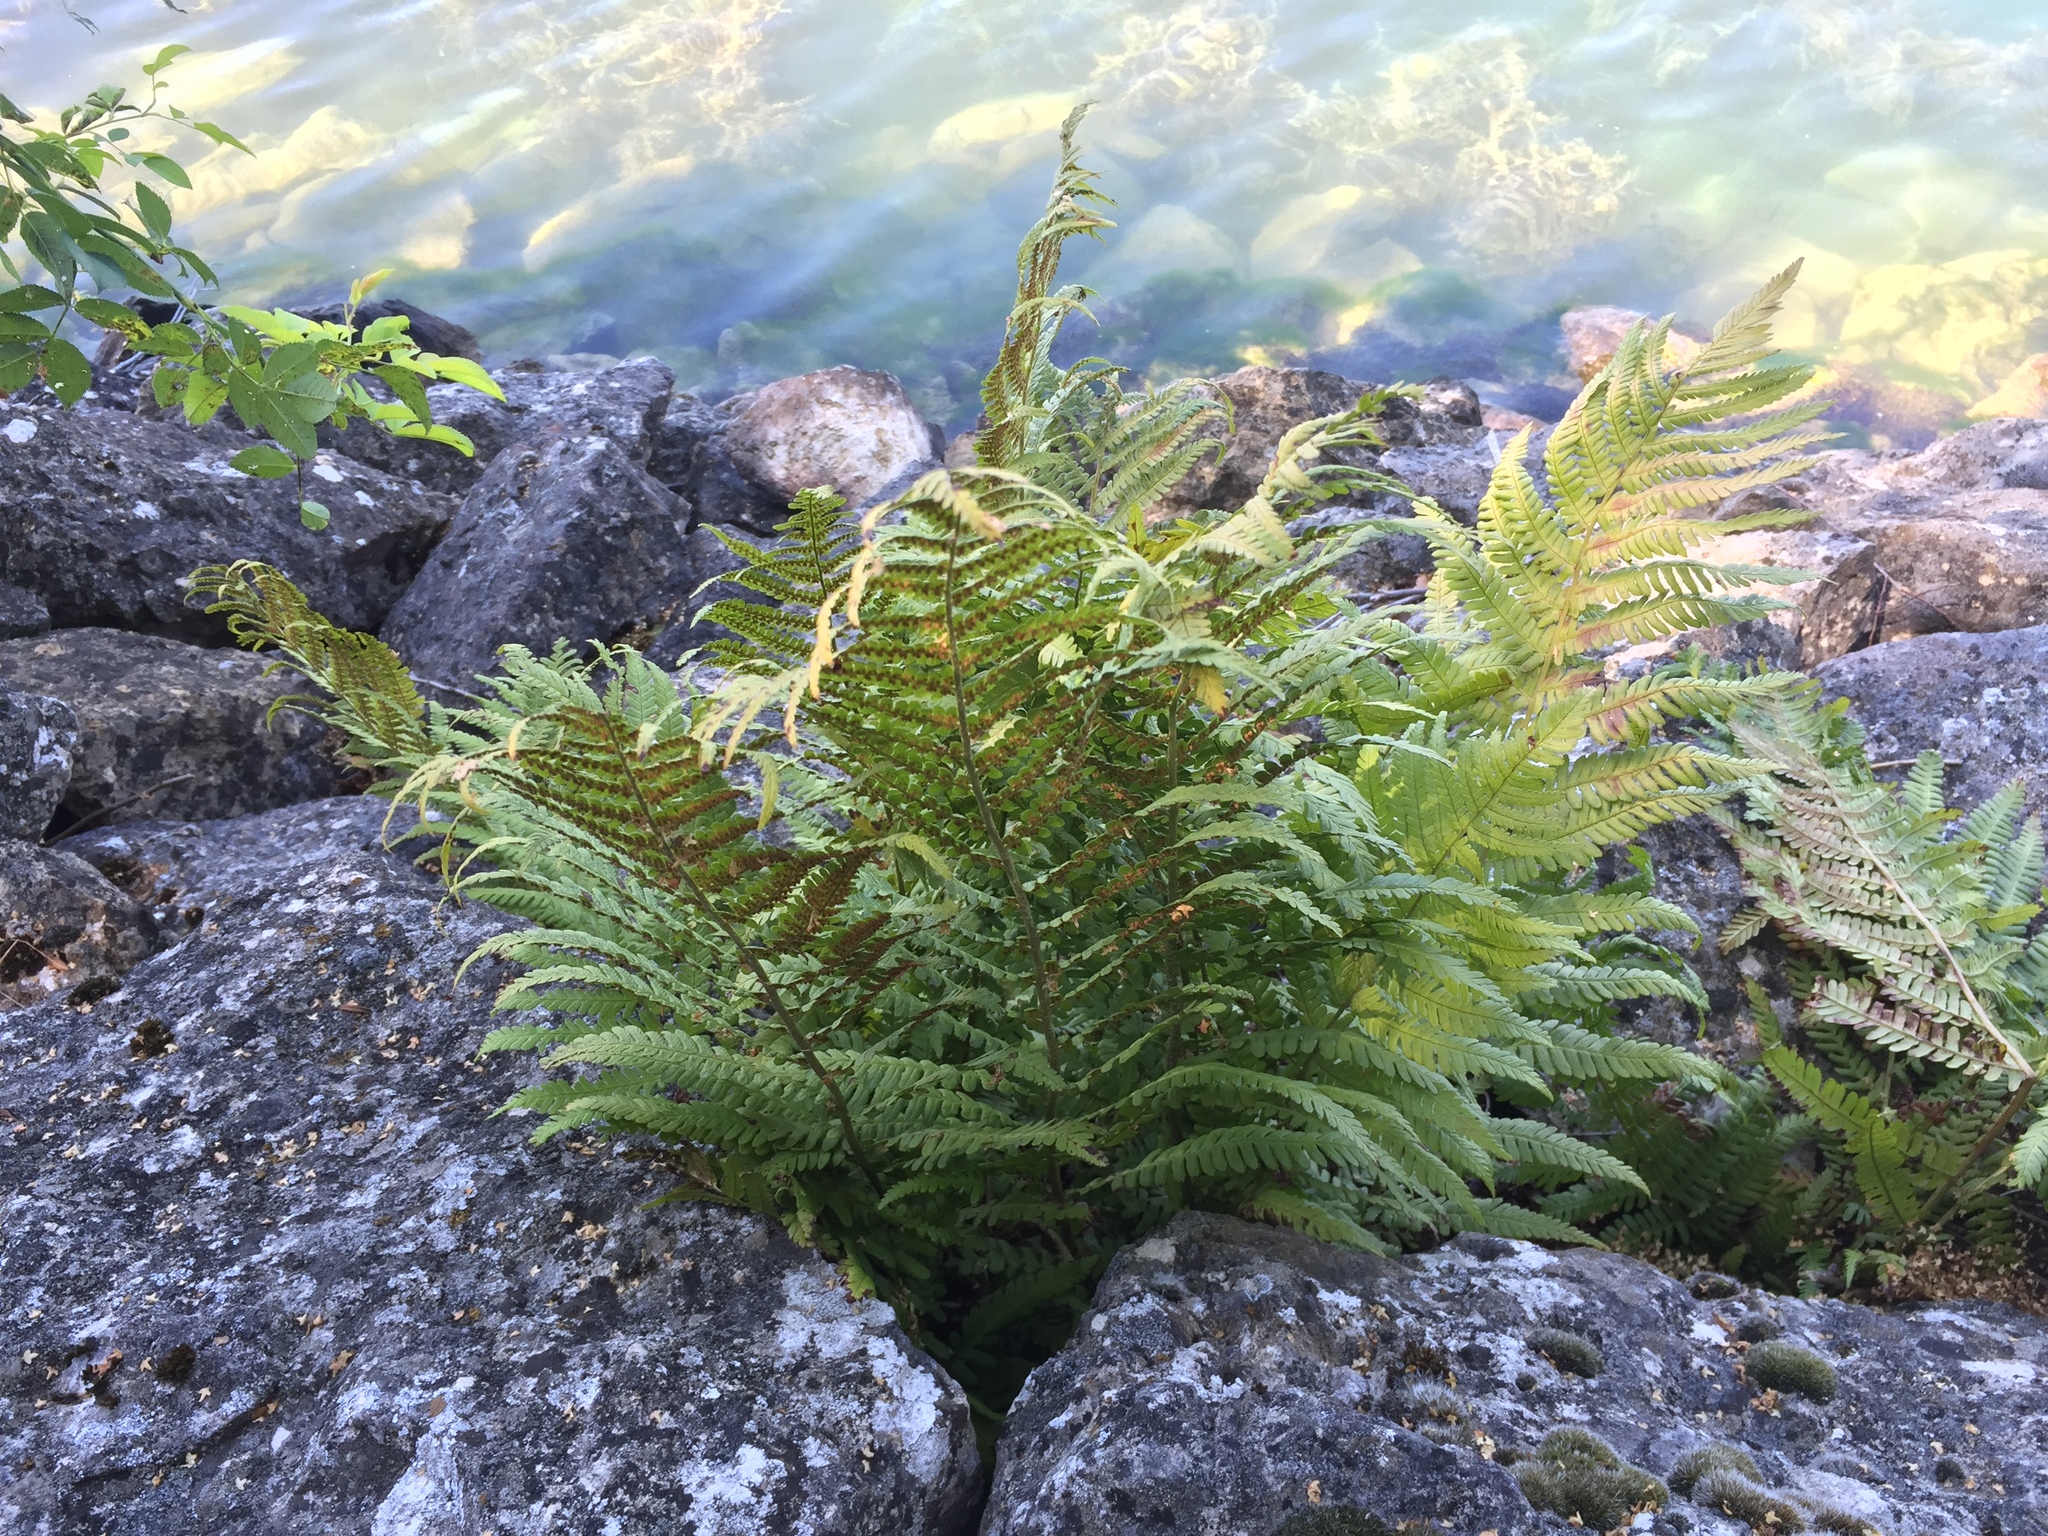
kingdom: Plantae
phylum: Tracheophyta
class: Polypodiopsida
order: Polypodiales
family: Dryopteridaceae
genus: Dryopteris
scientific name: Dryopteris filix-mas
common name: Male fern
